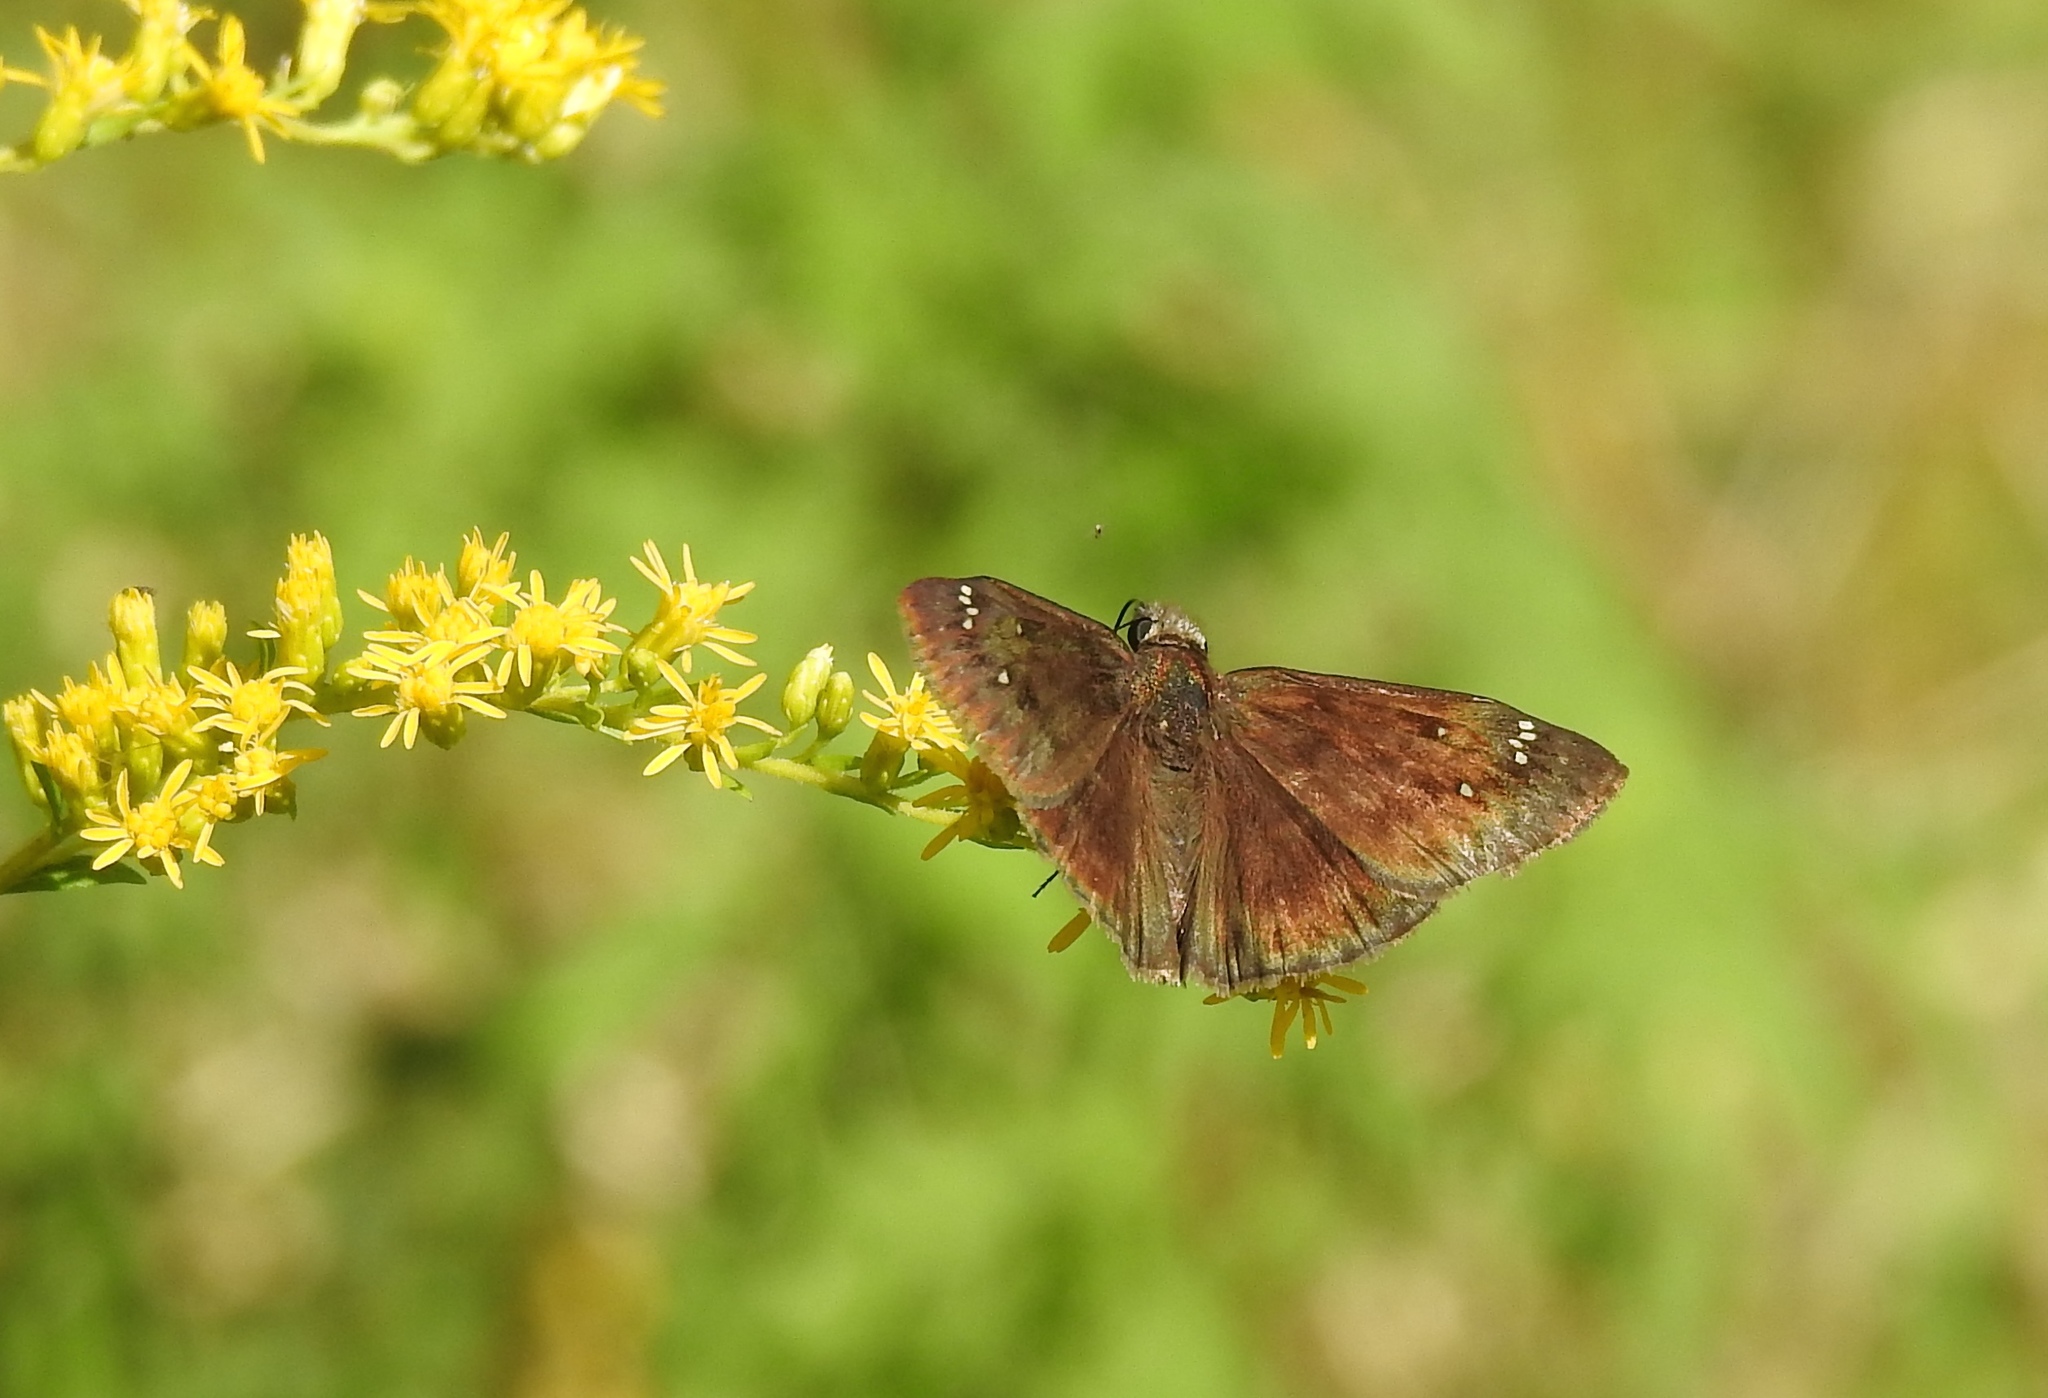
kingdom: Animalia
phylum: Arthropoda
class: Insecta
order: Lepidoptera
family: Hesperiidae
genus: Erynnis
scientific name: Erynnis horatius
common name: Horace's duskywing
